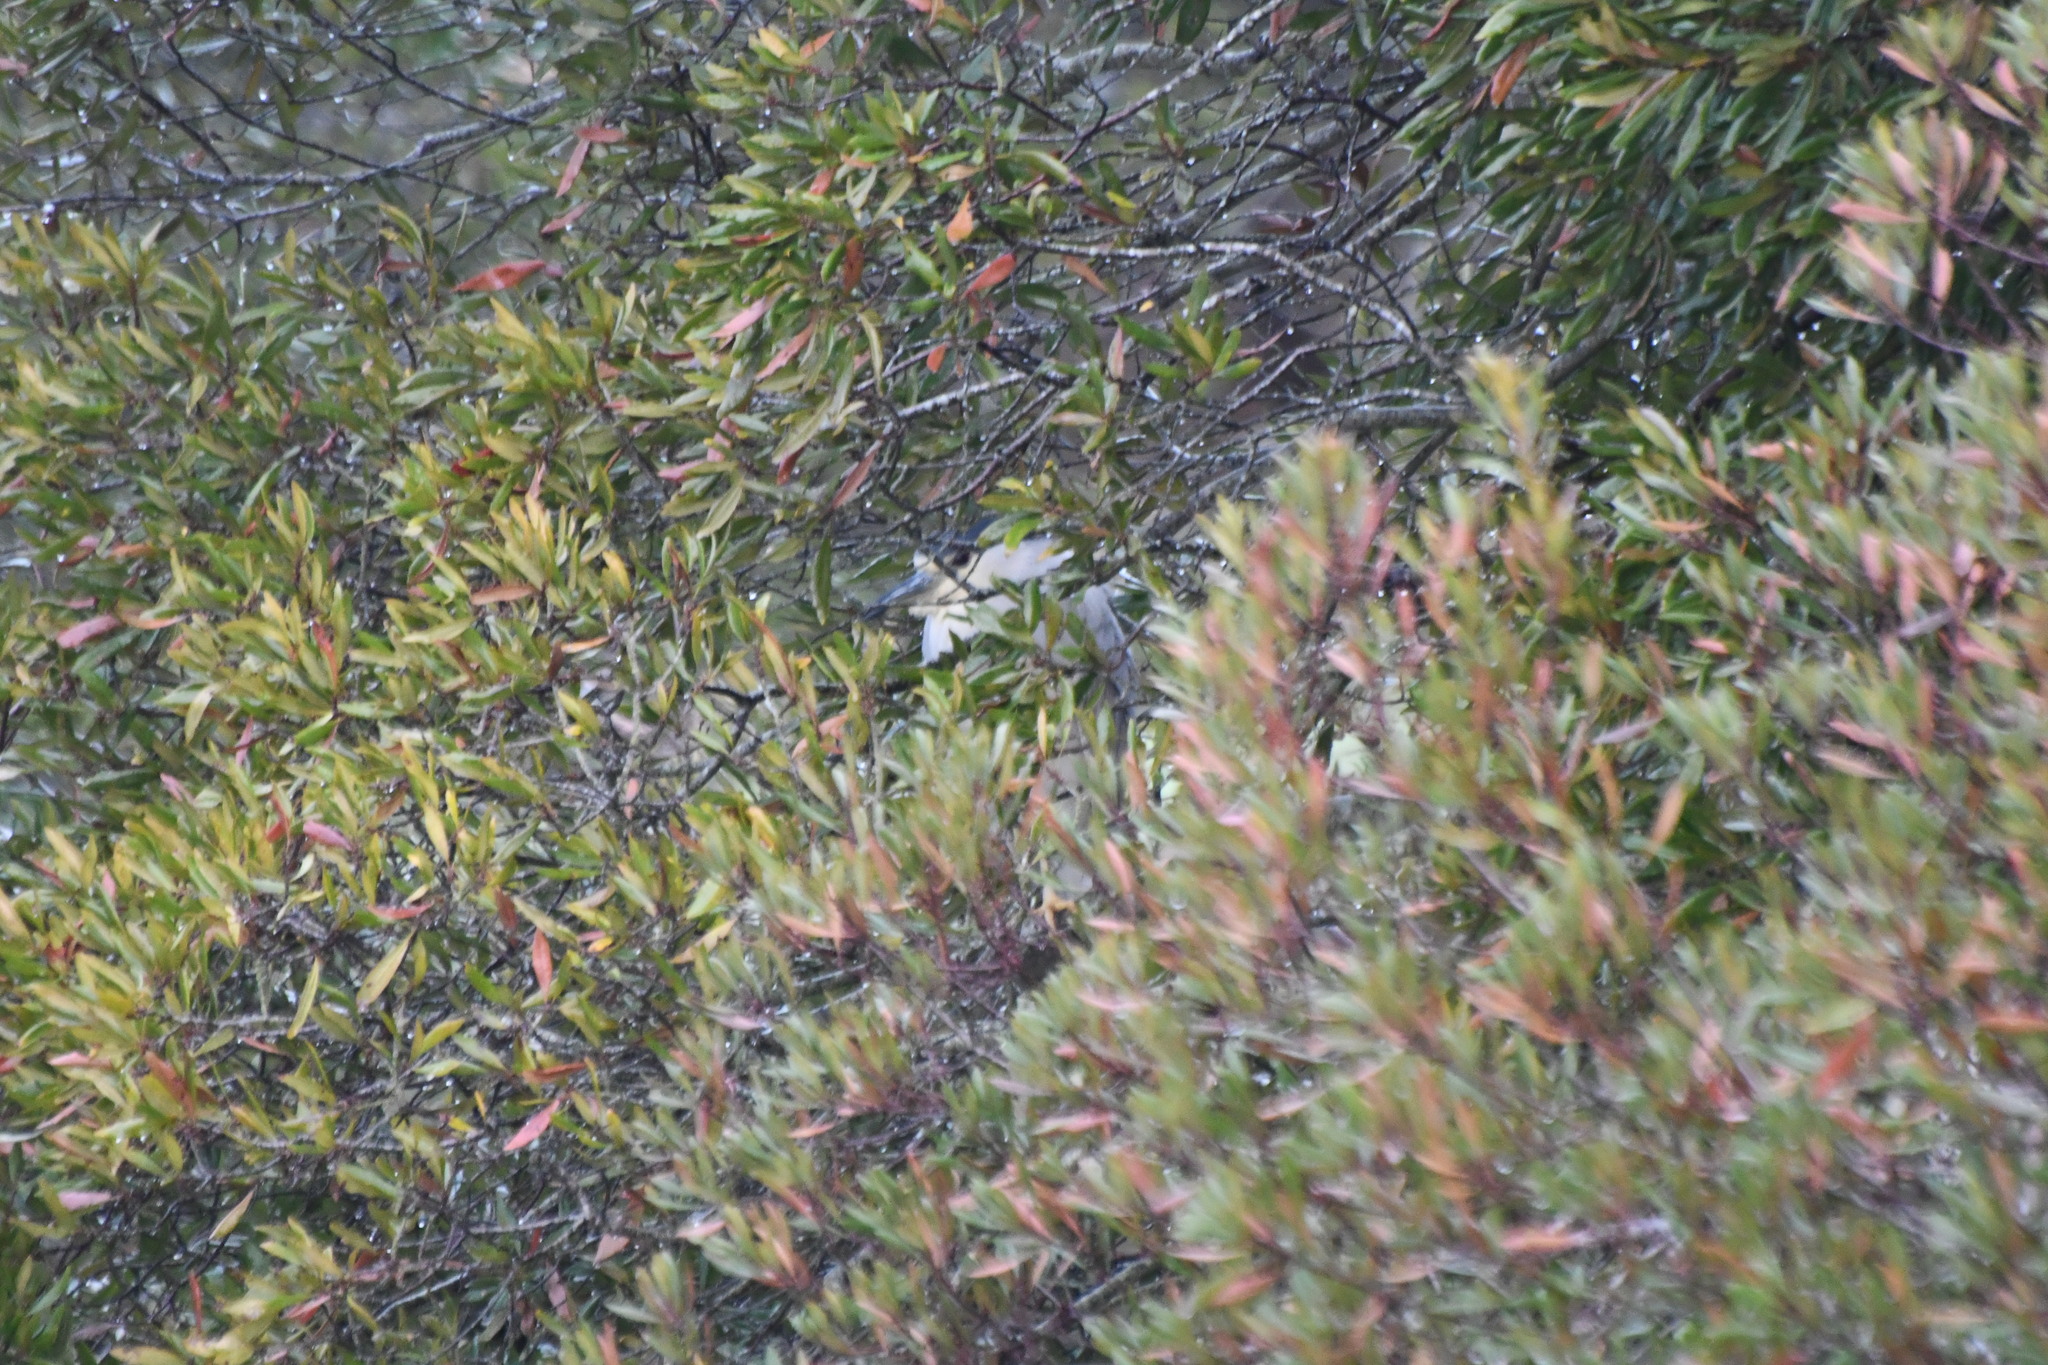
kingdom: Animalia
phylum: Chordata
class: Aves
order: Pelecaniformes
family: Ardeidae
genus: Nycticorax
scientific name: Nycticorax nycticorax
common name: Black-crowned night heron
